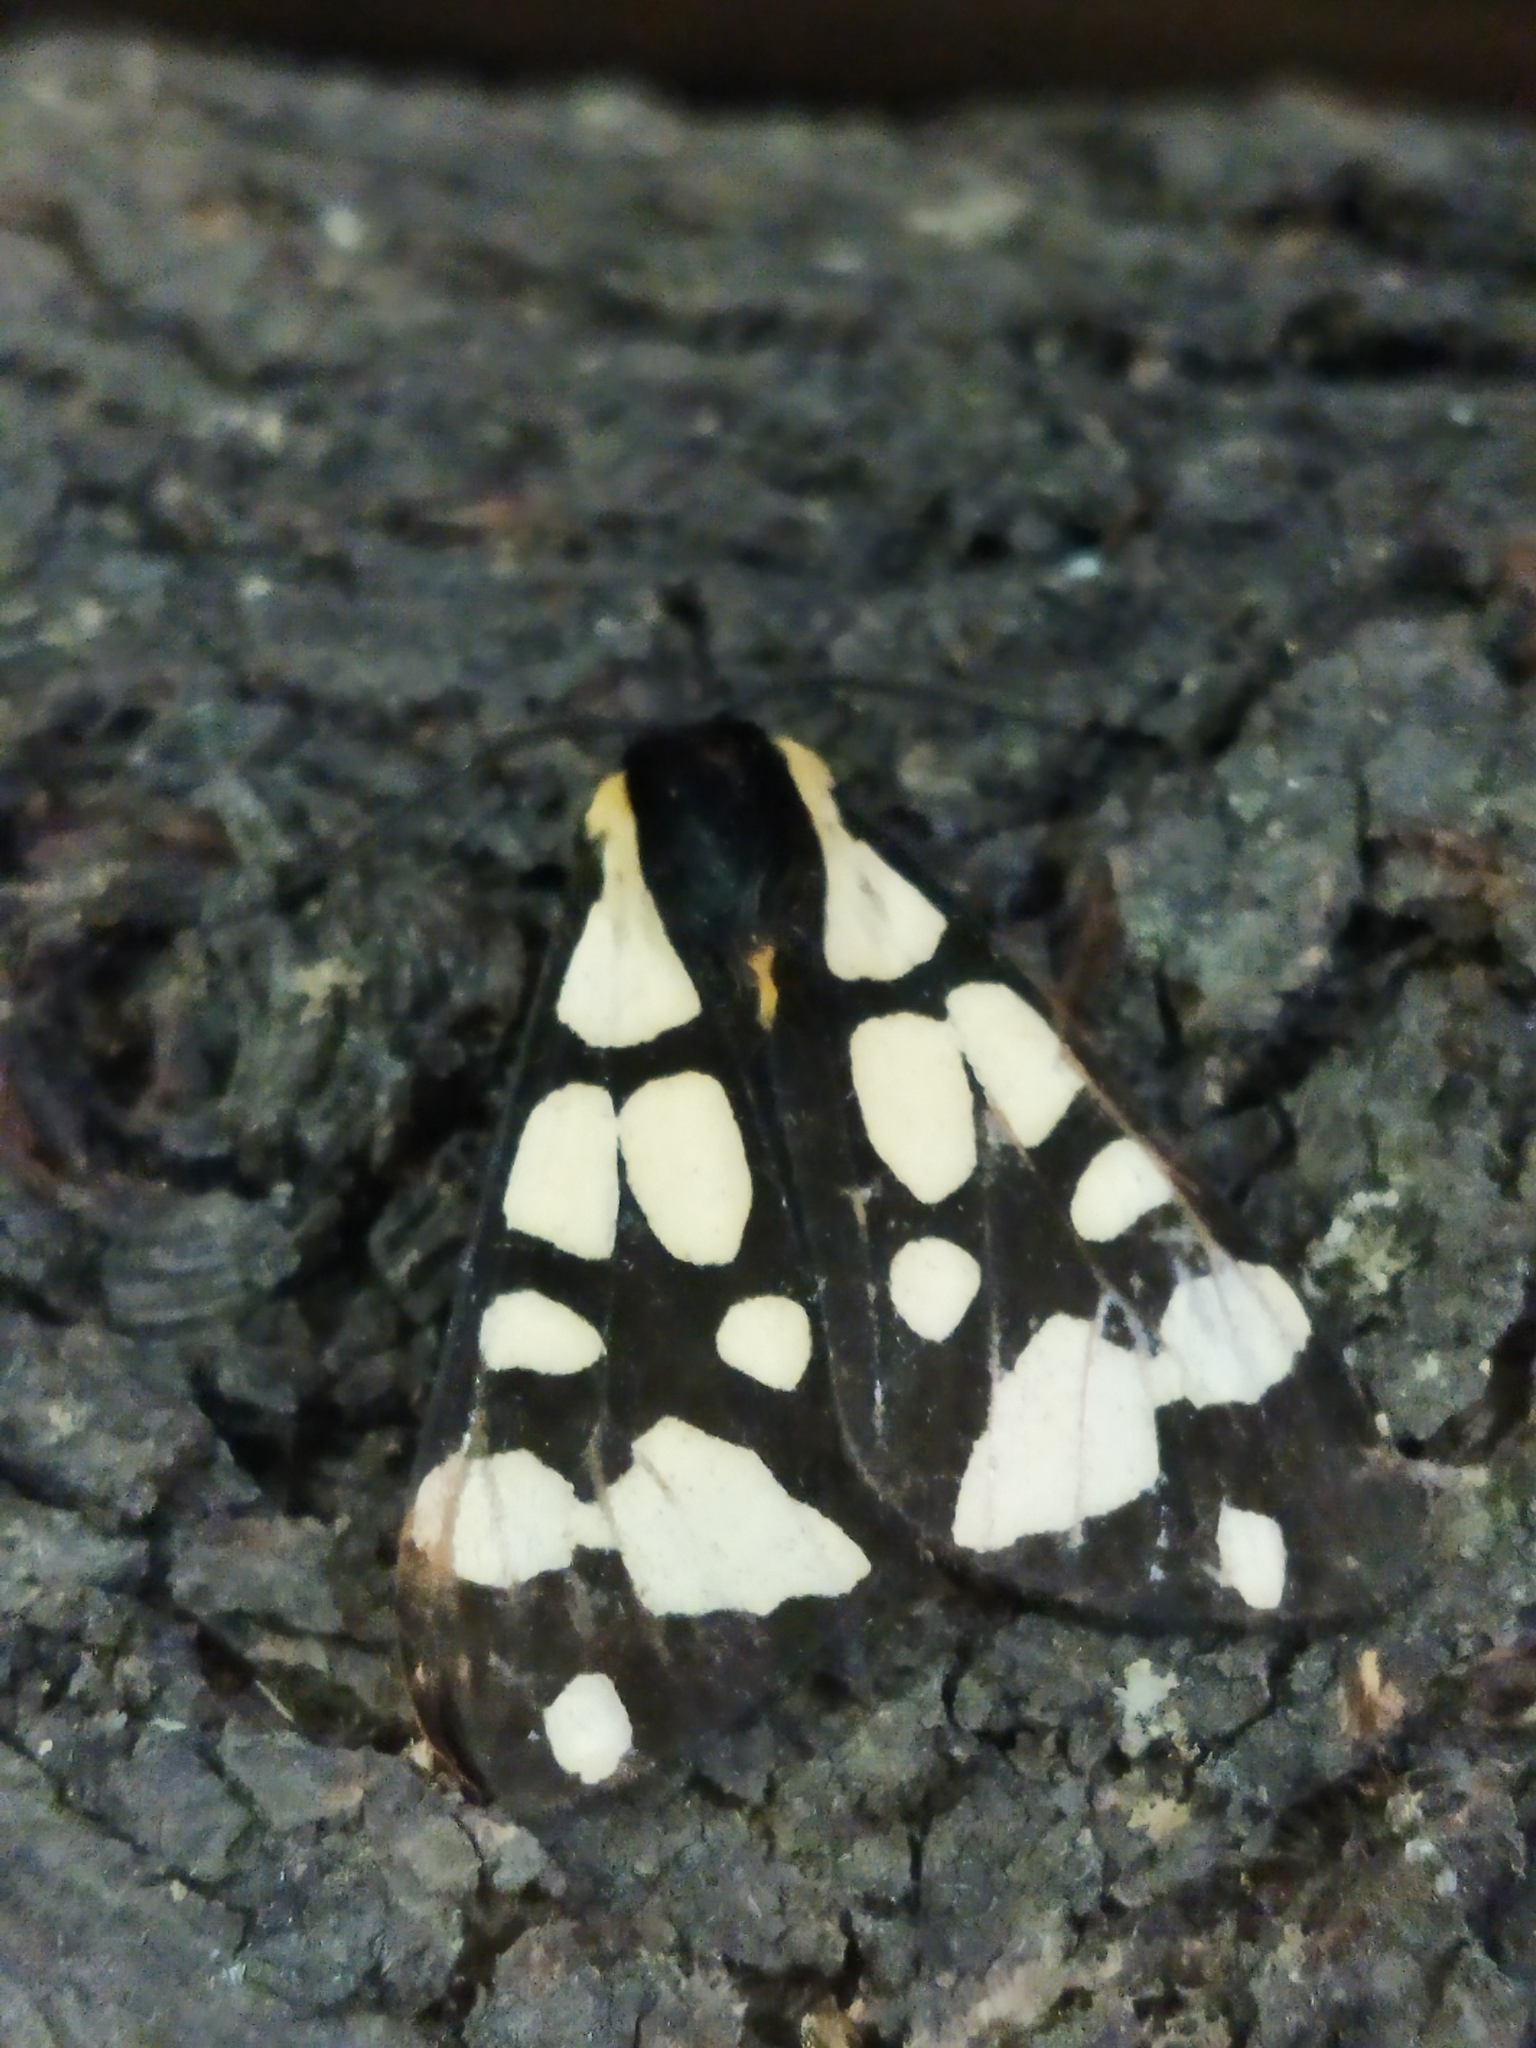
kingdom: Animalia
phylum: Arthropoda
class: Insecta
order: Lepidoptera
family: Erebidae
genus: Epicallia
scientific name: Epicallia villica
